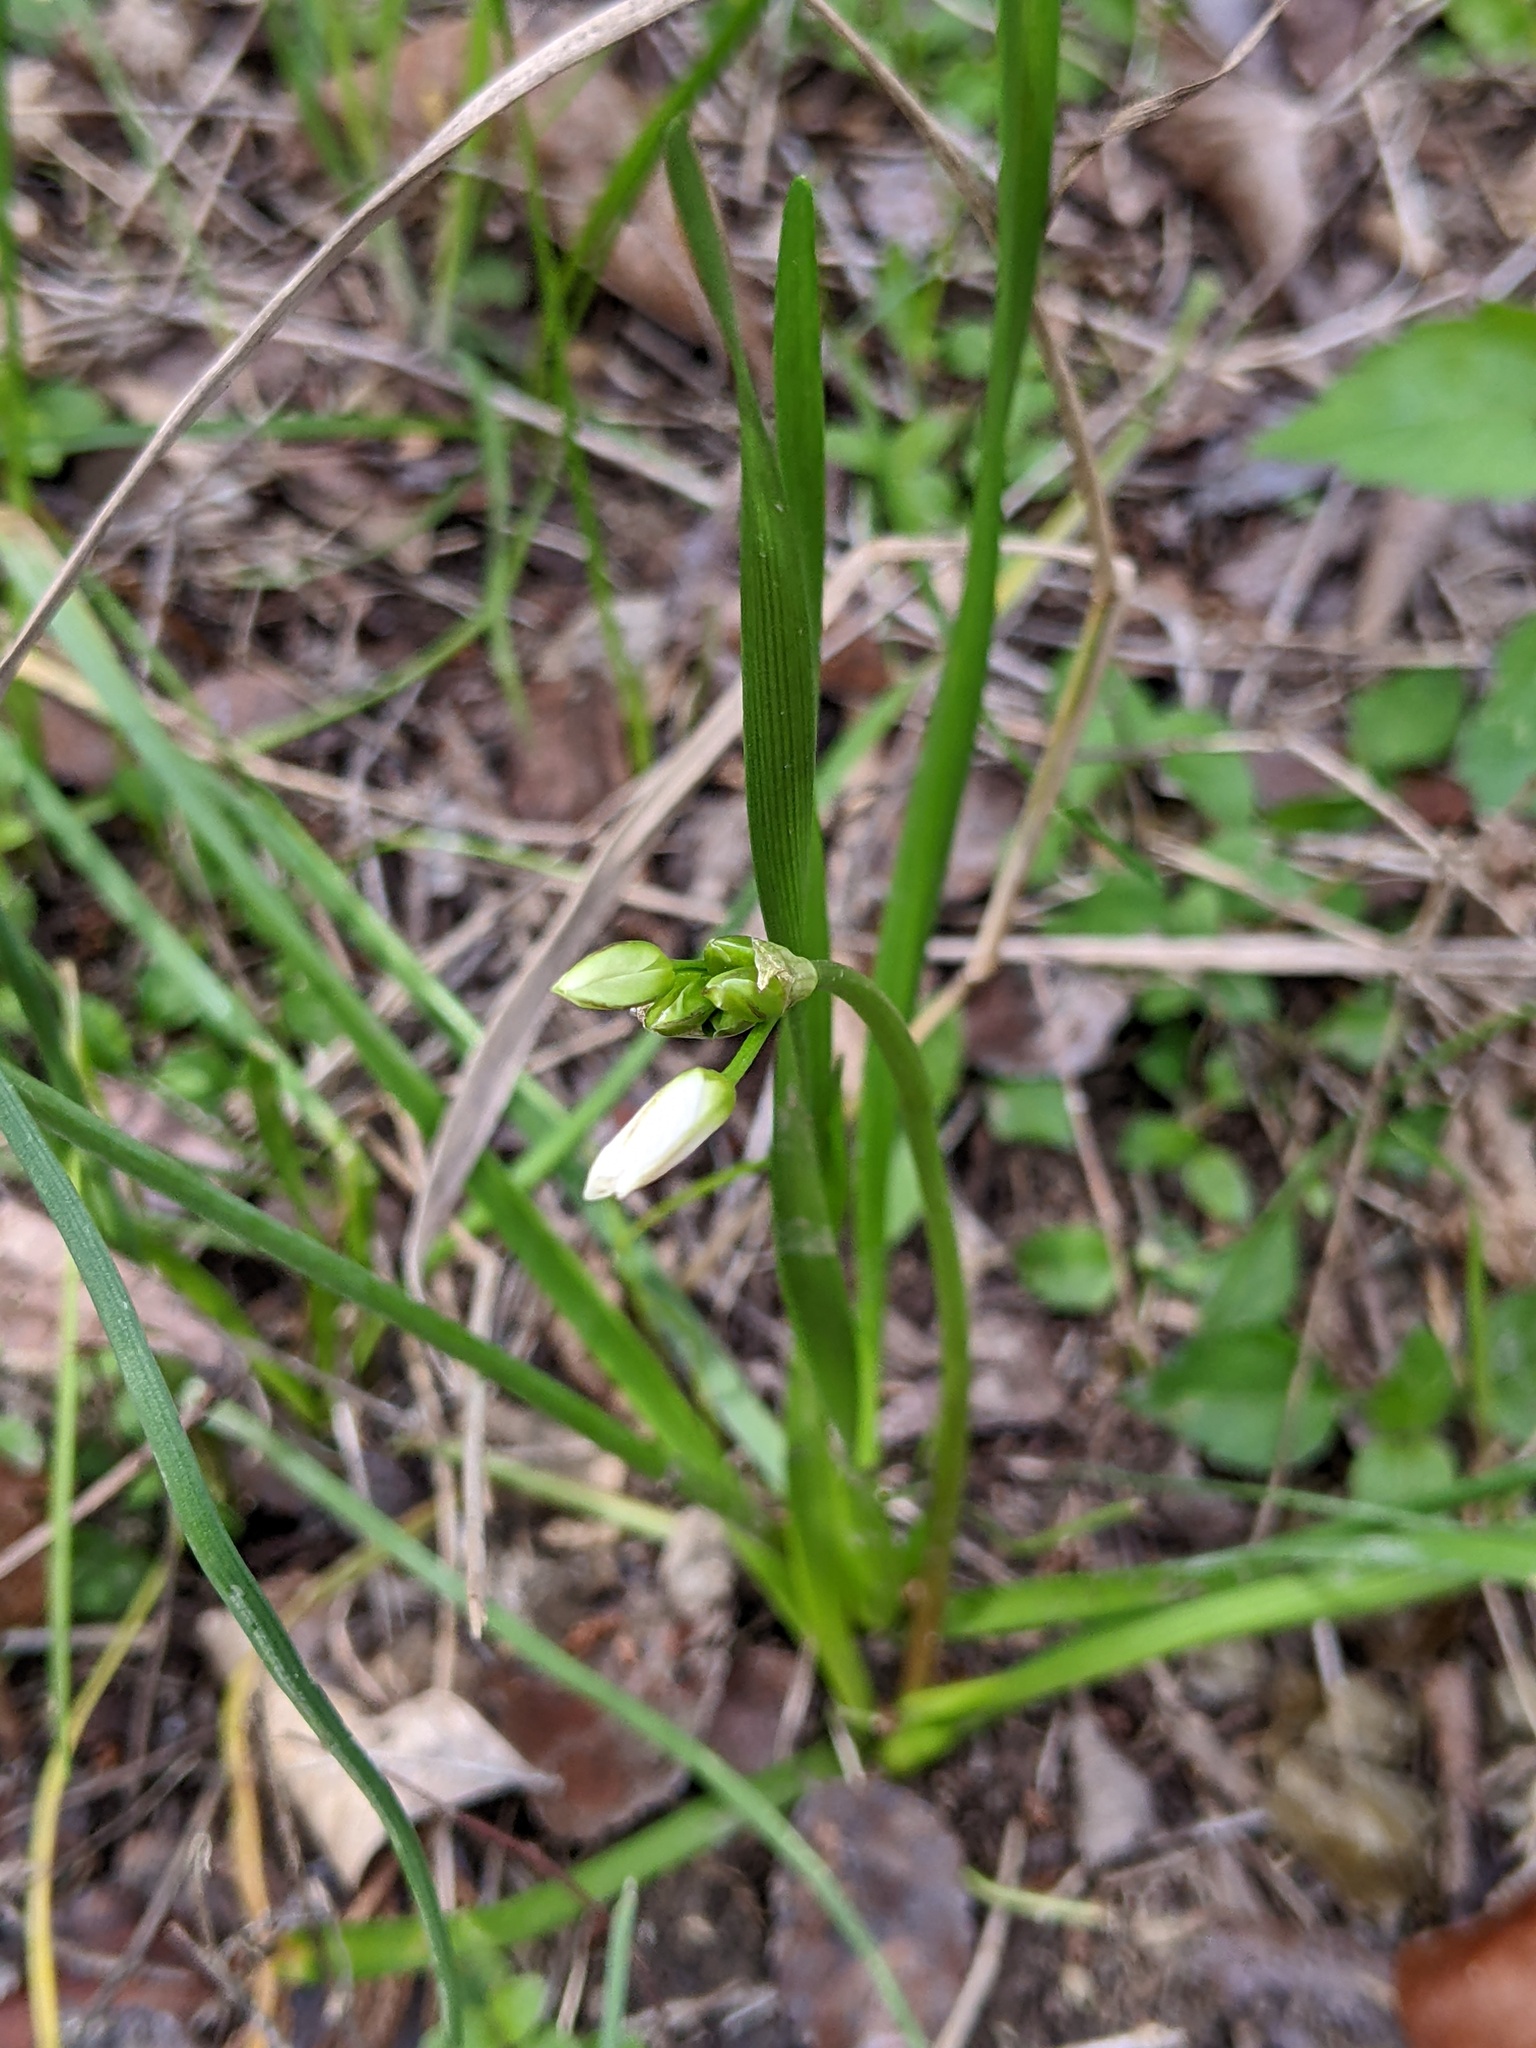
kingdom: Plantae
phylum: Tracheophyta
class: Liliopsida
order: Asparagales
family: Amaryllidaceae
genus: Nothoscordum
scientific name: Nothoscordum bivalve
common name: Crow-poison
